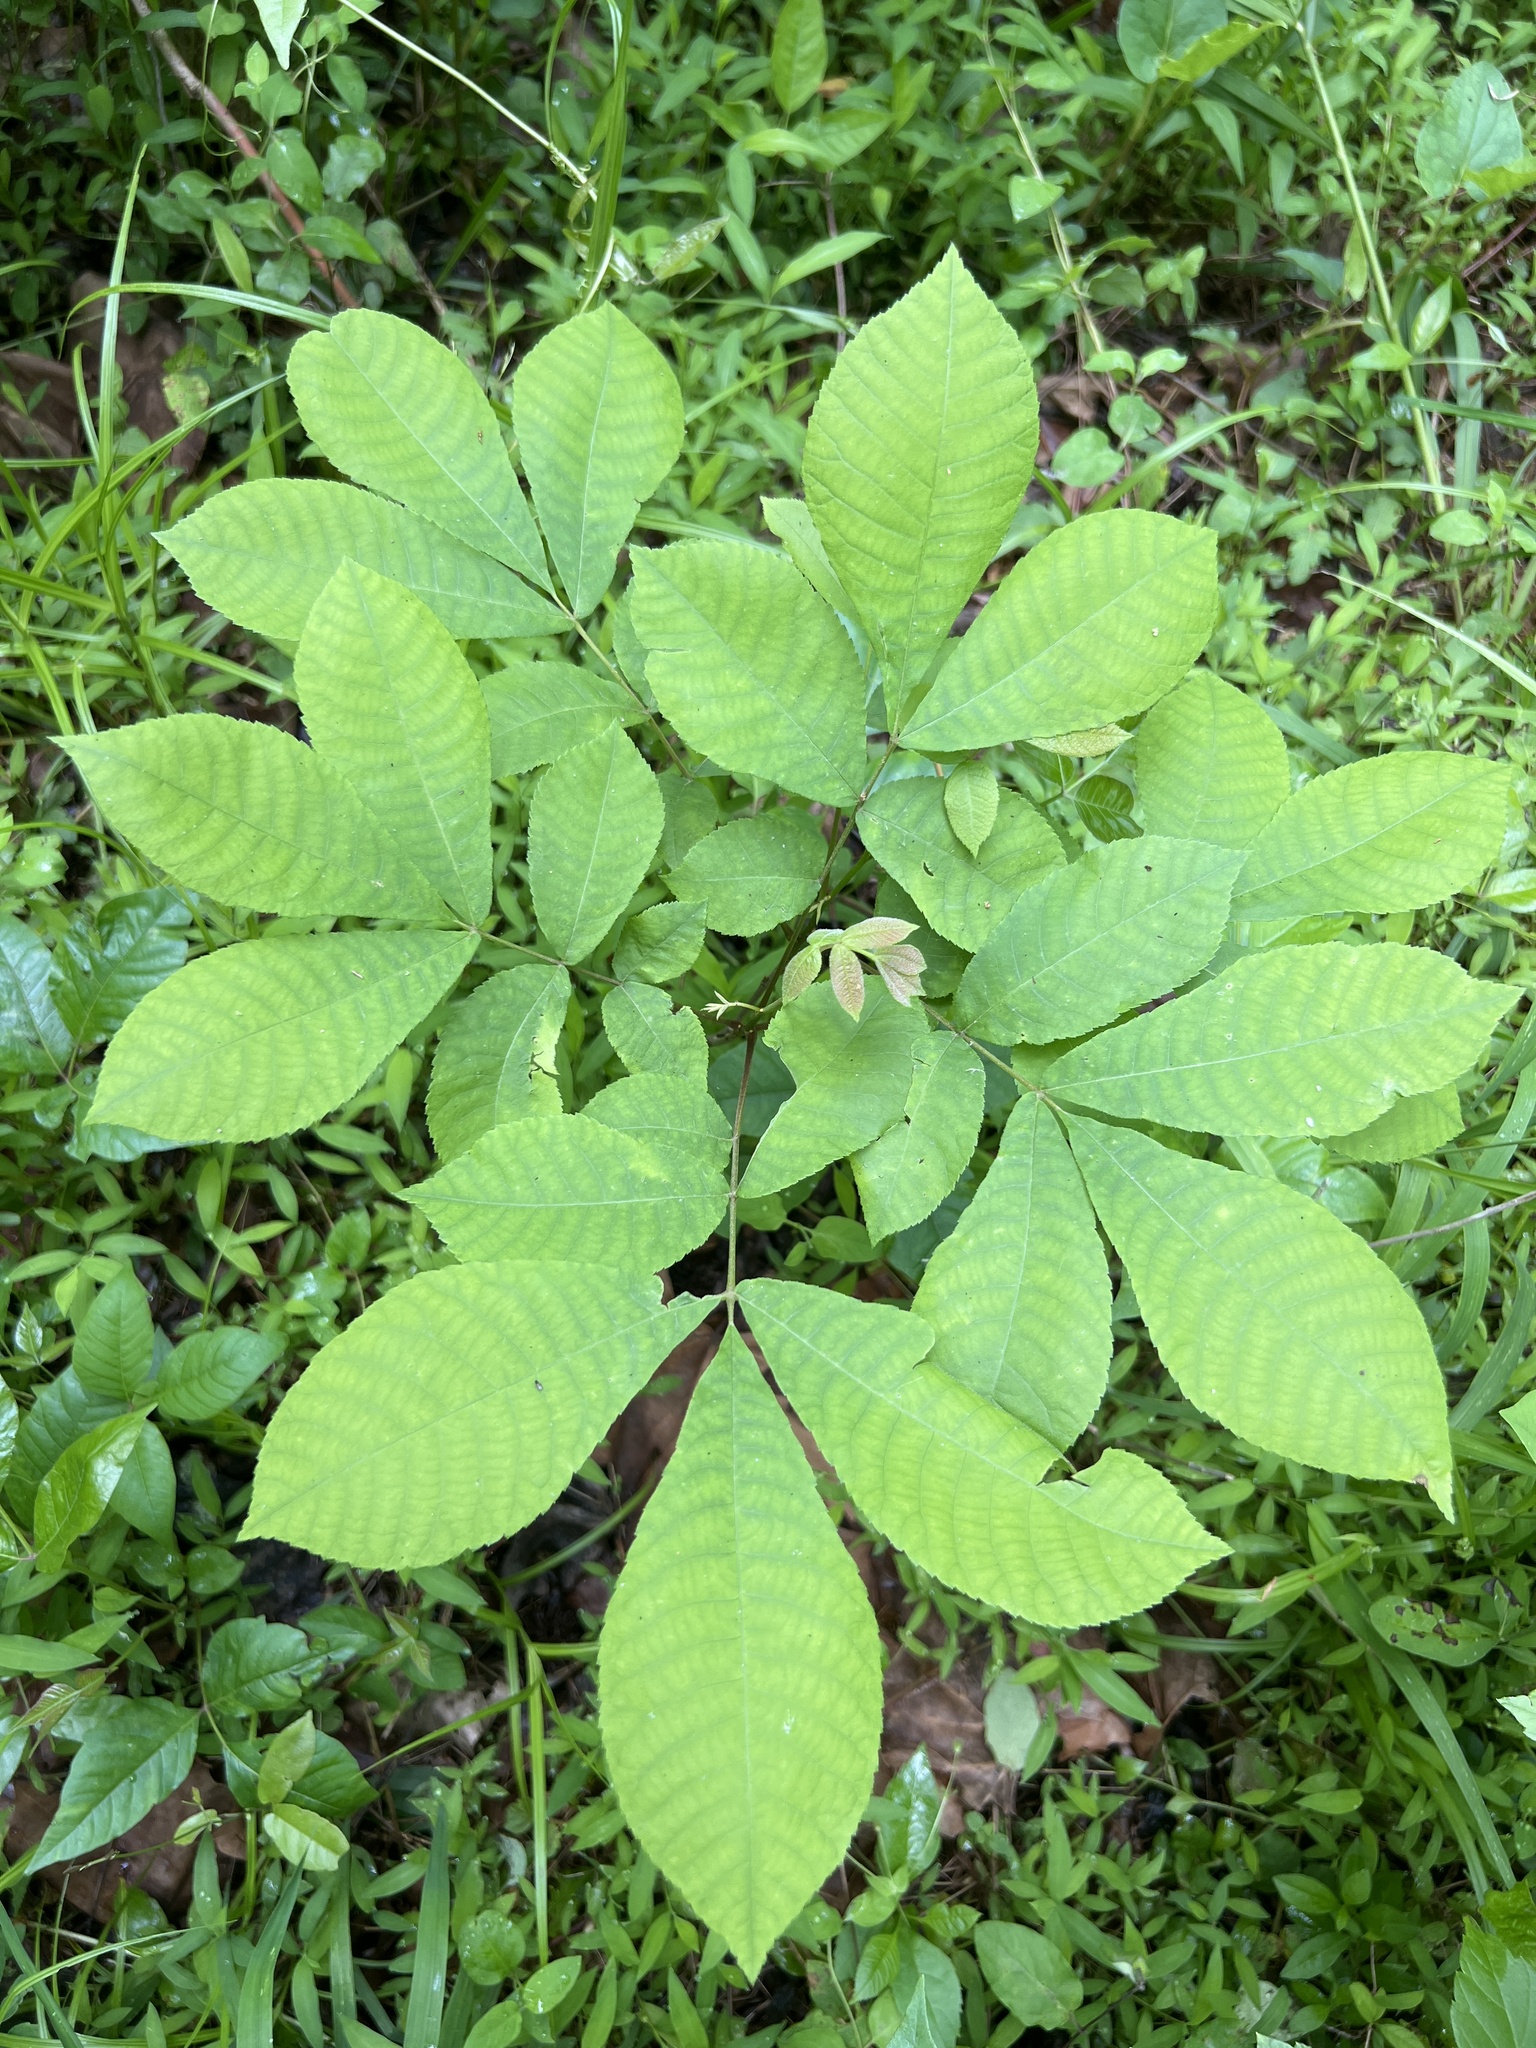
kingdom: Plantae
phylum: Tracheophyta
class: Magnoliopsida
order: Fagales
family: Juglandaceae
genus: Carya
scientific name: Carya cordiformis
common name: Bitternut hickory
